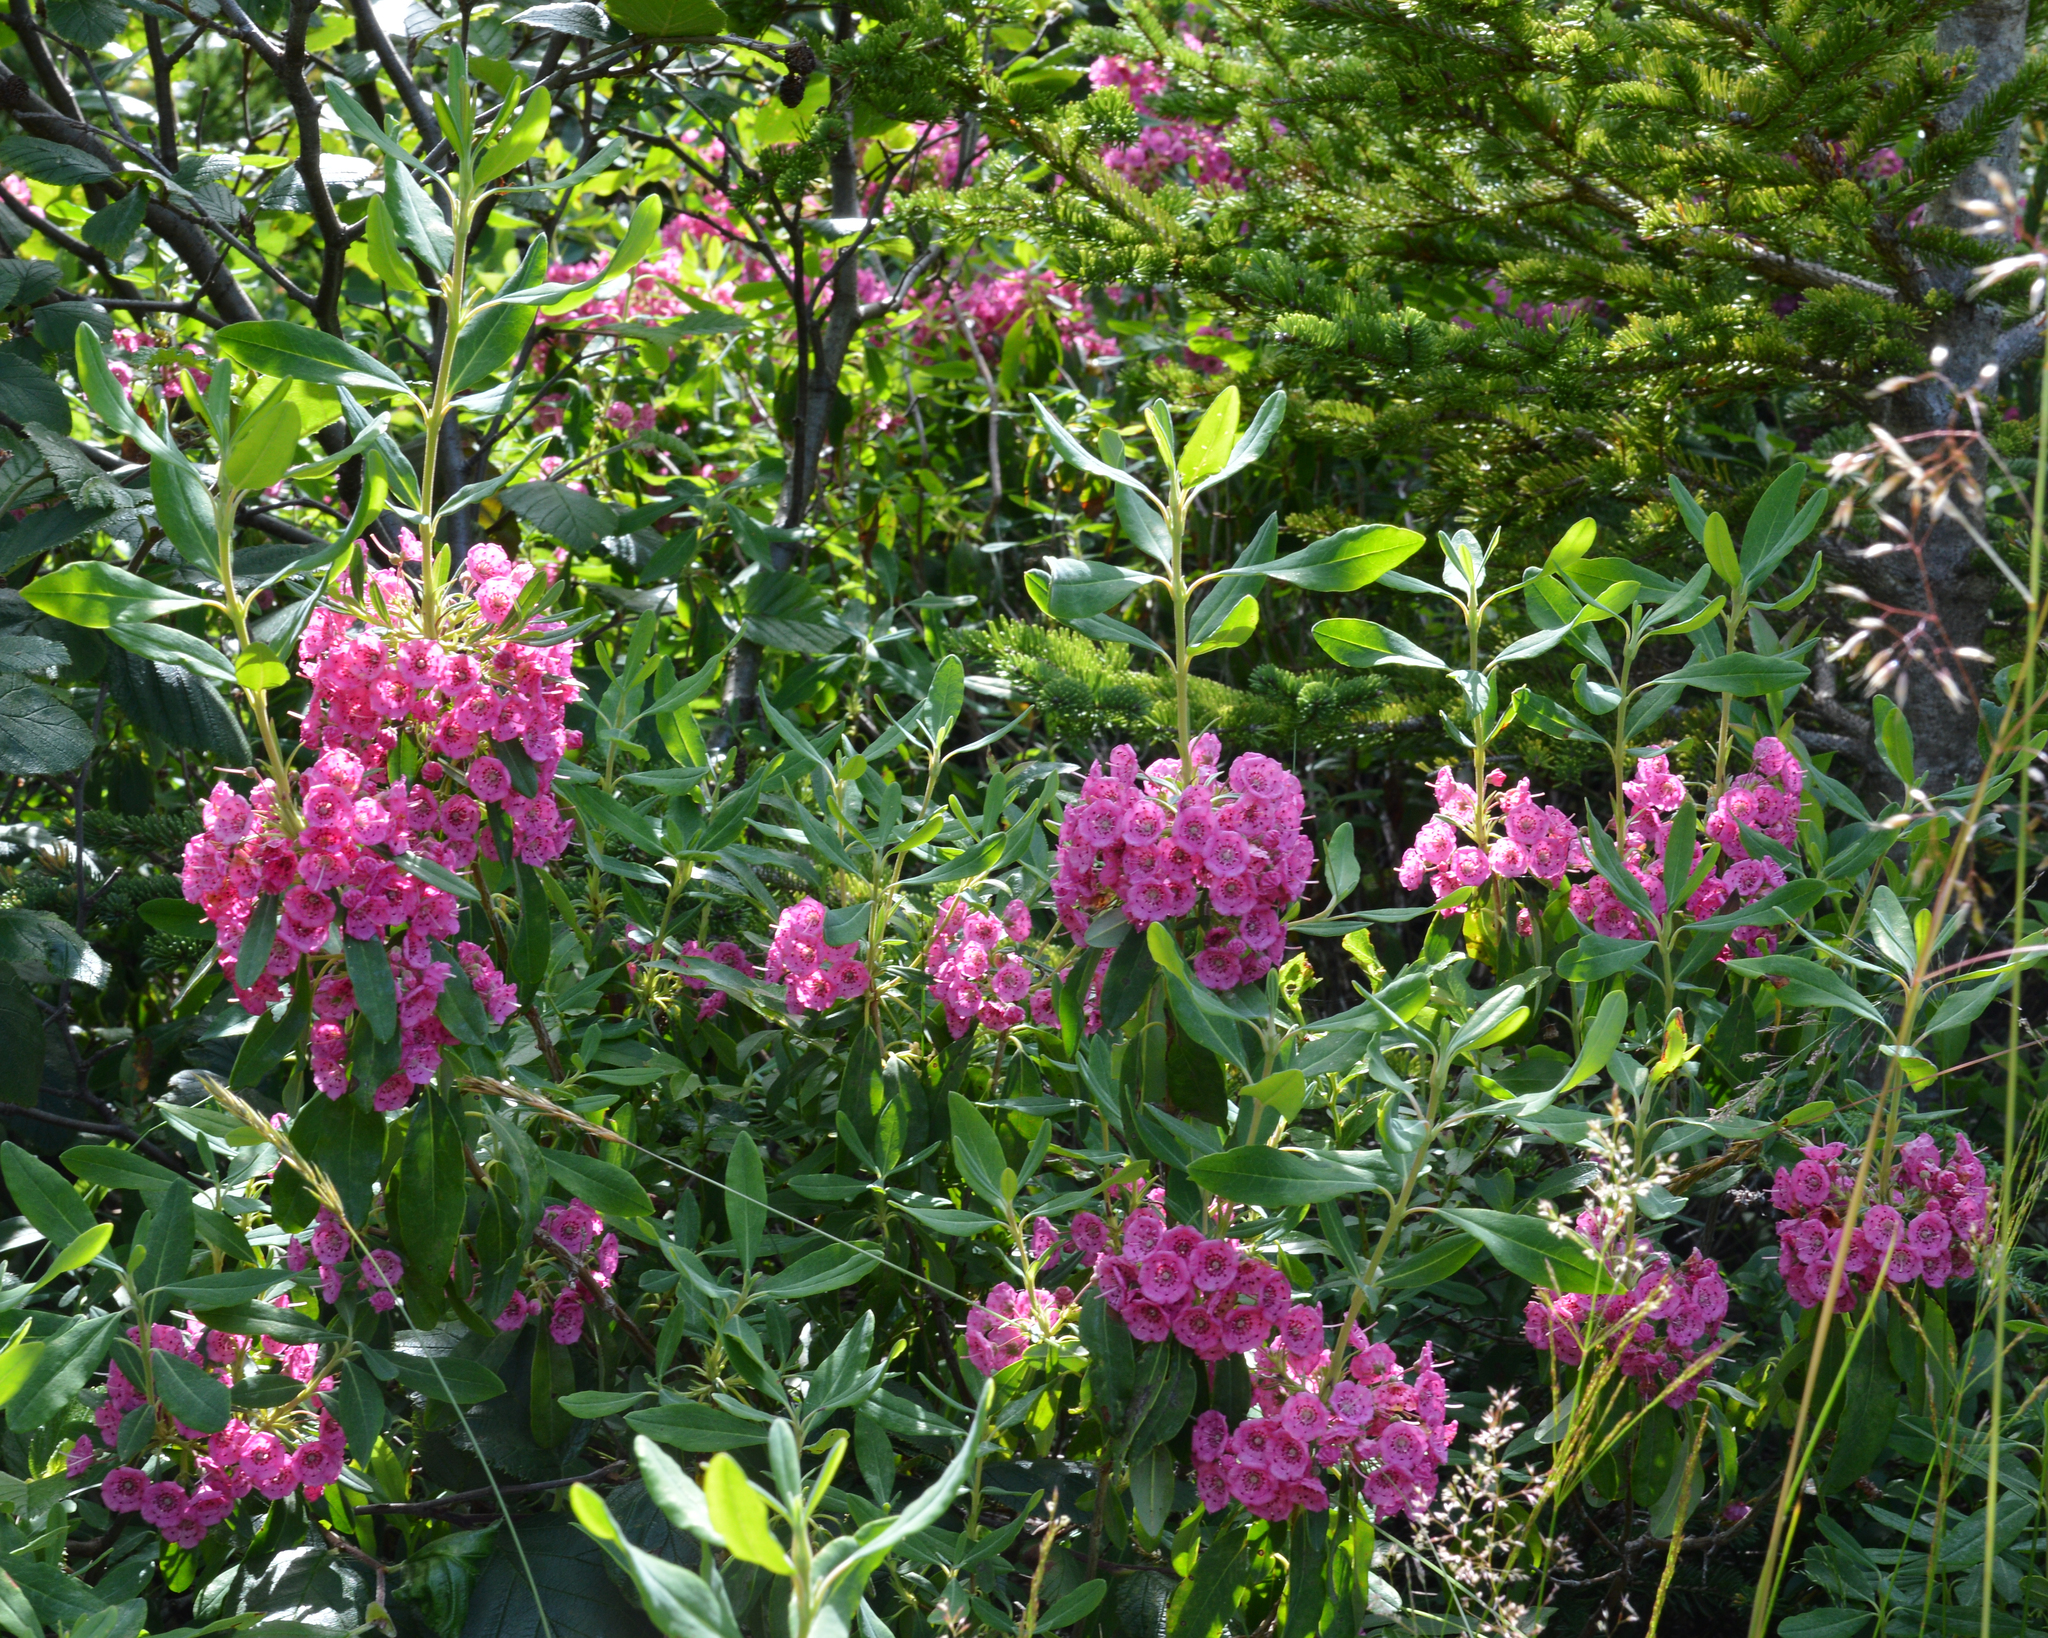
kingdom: Plantae
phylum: Tracheophyta
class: Magnoliopsida
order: Ericales
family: Ericaceae
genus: Kalmia
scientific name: Kalmia angustifolia
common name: Sheep-laurel
